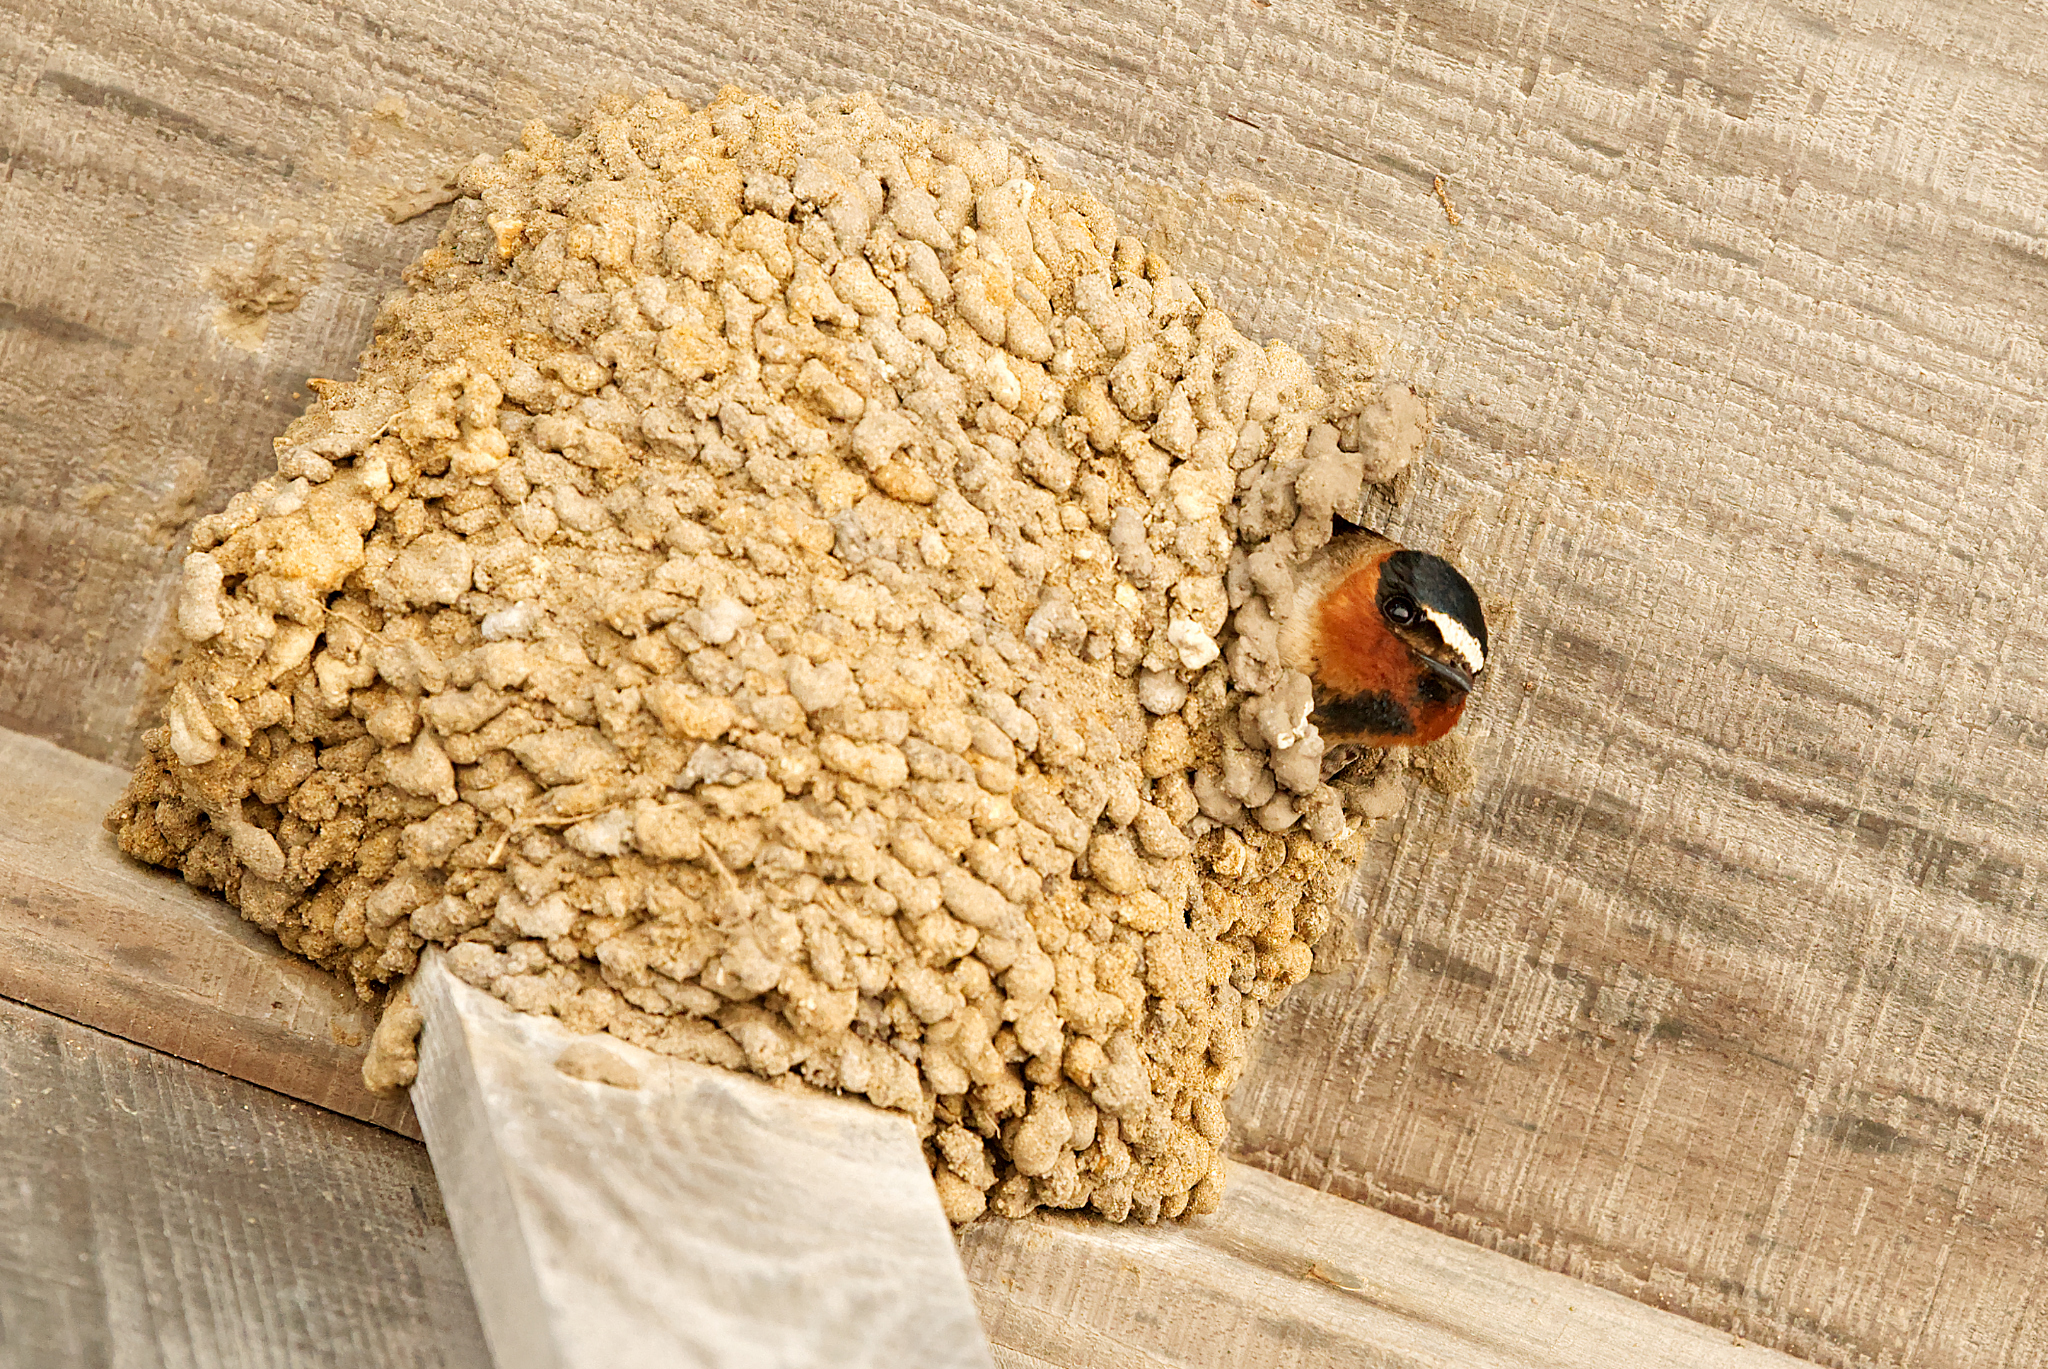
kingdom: Animalia
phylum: Chordata
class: Aves
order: Passeriformes
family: Hirundinidae
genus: Petrochelidon
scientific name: Petrochelidon pyrrhonota
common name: American cliff swallow
